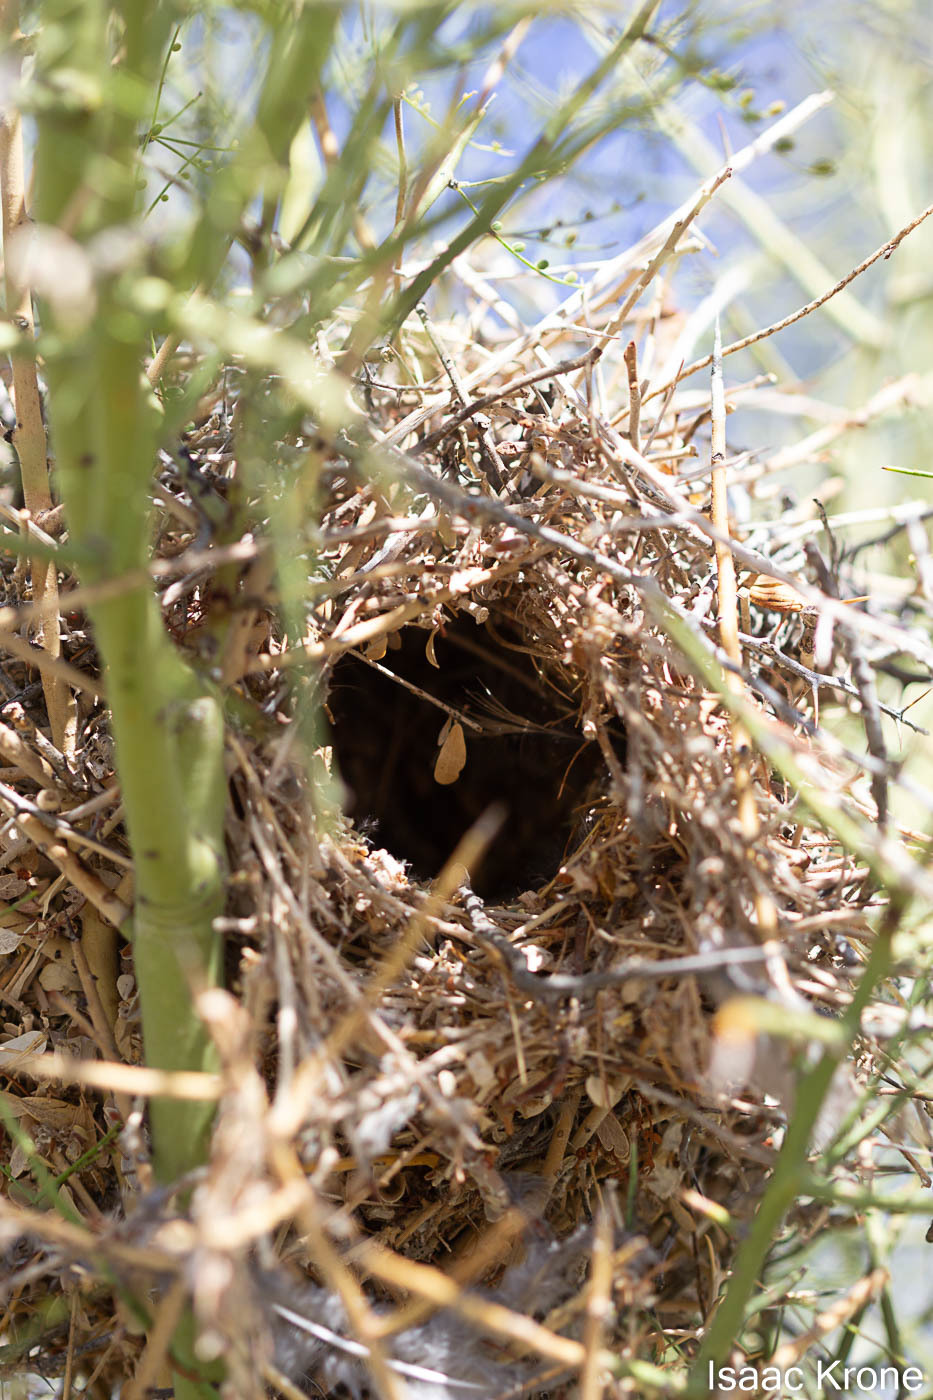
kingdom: Animalia
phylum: Chordata
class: Aves
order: Passeriformes
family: Remizidae
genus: Auriparus
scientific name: Auriparus flaviceps
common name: Verdin
